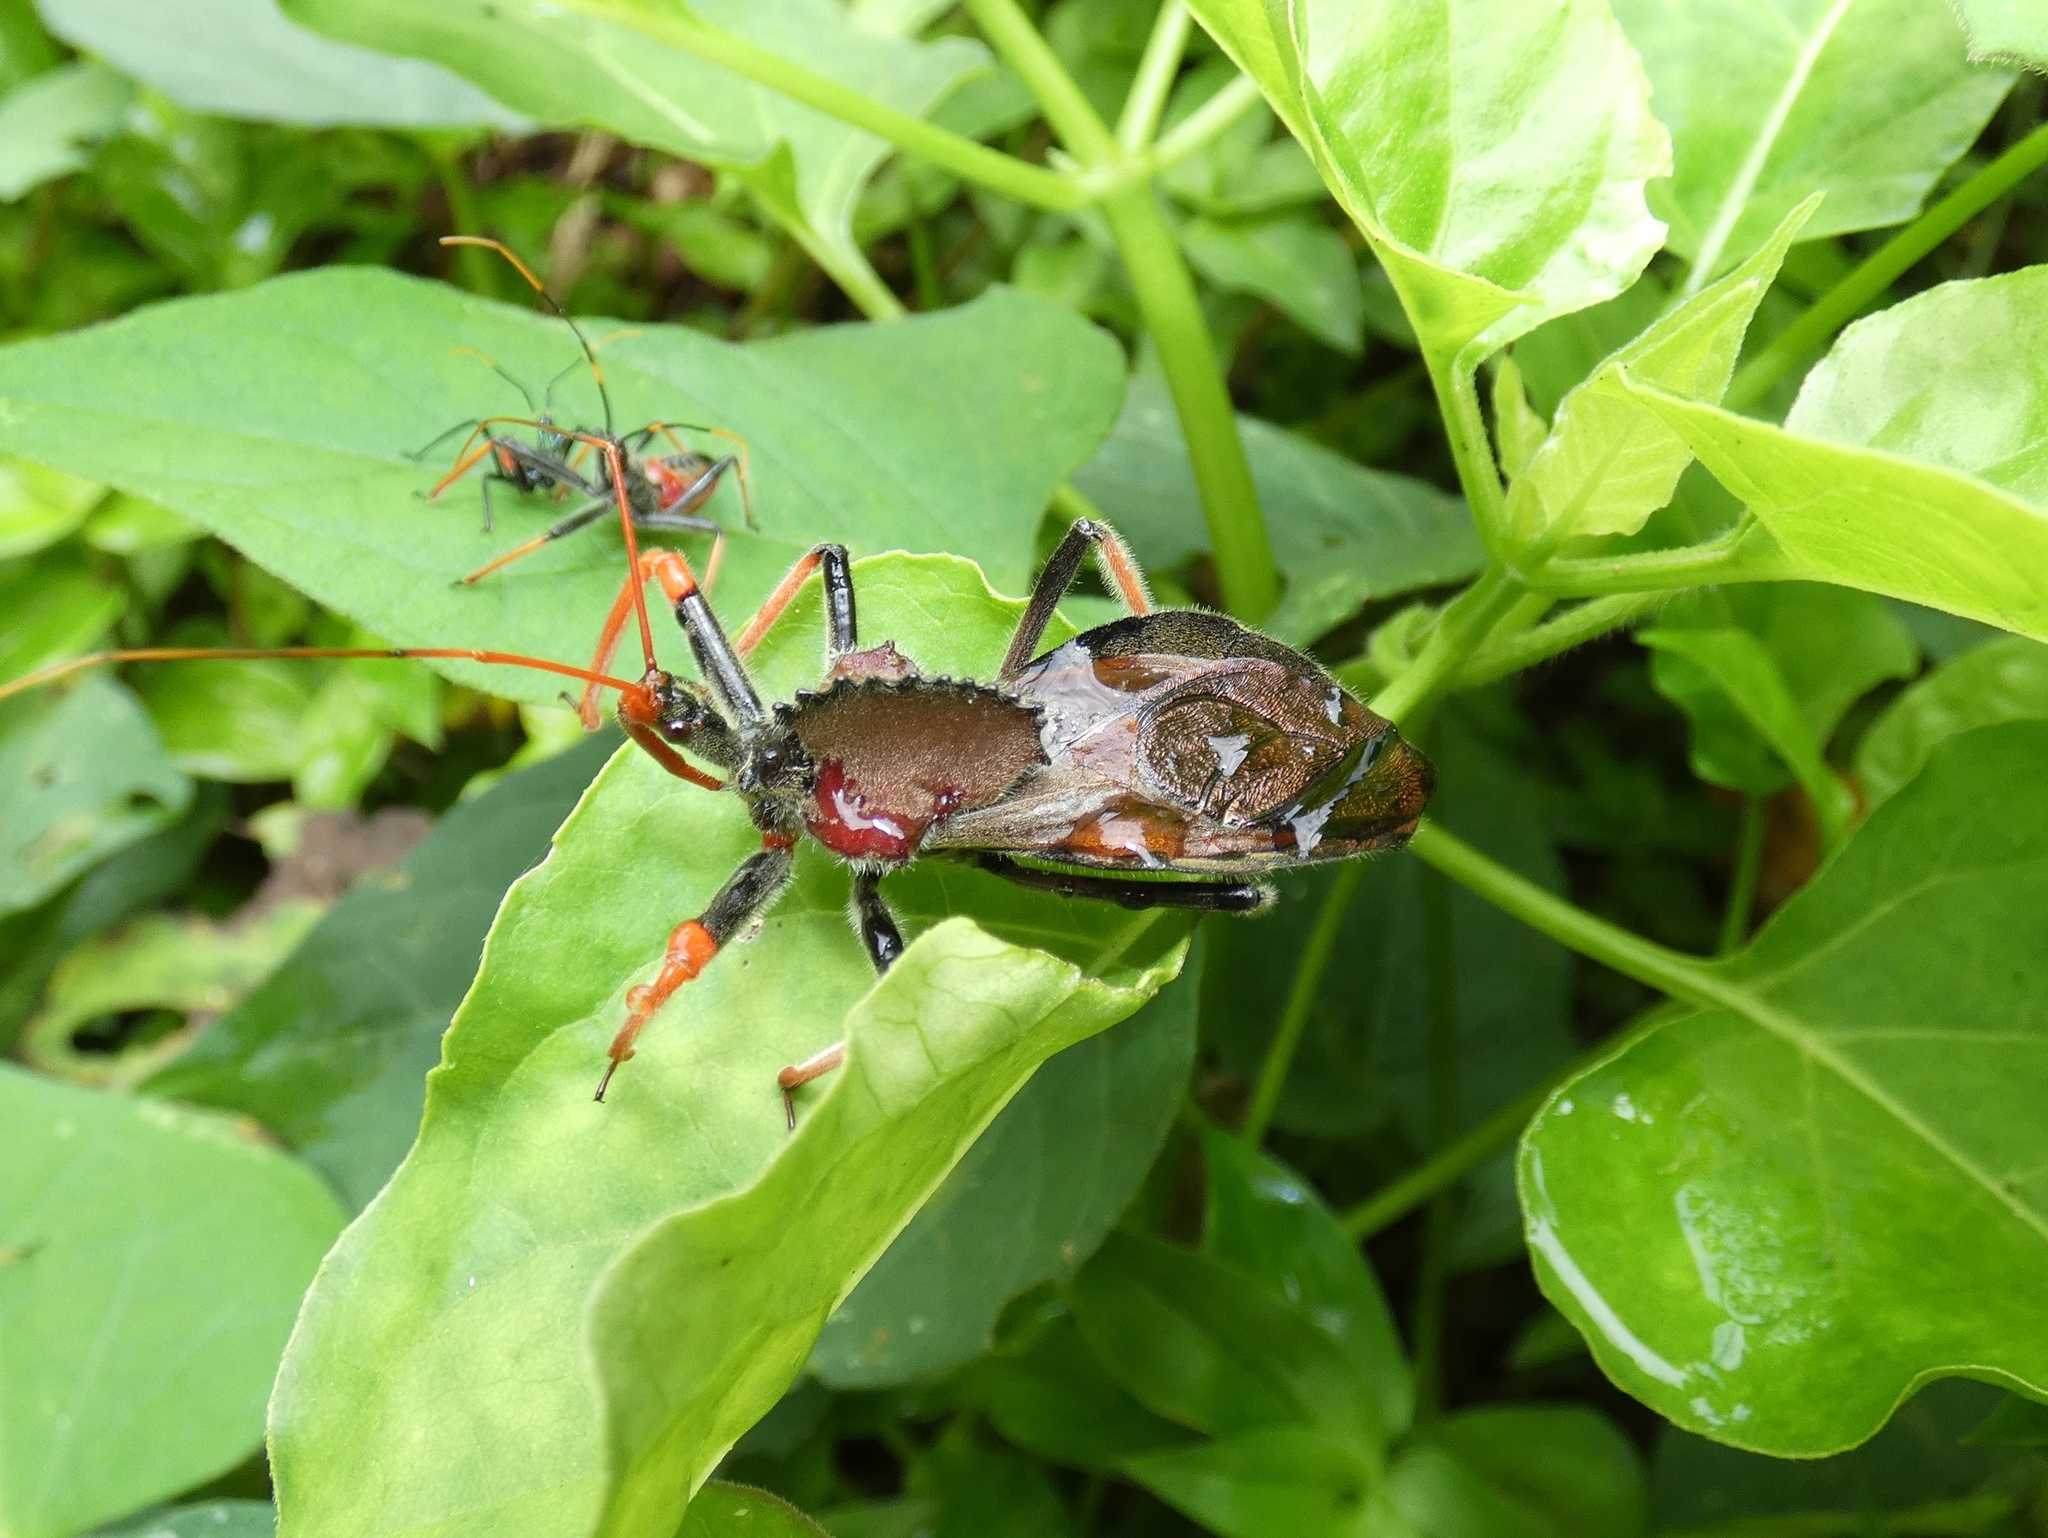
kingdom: Animalia
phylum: Arthropoda
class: Insecta
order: Hemiptera
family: Reduviidae
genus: Arilus
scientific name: Arilus carinatus
